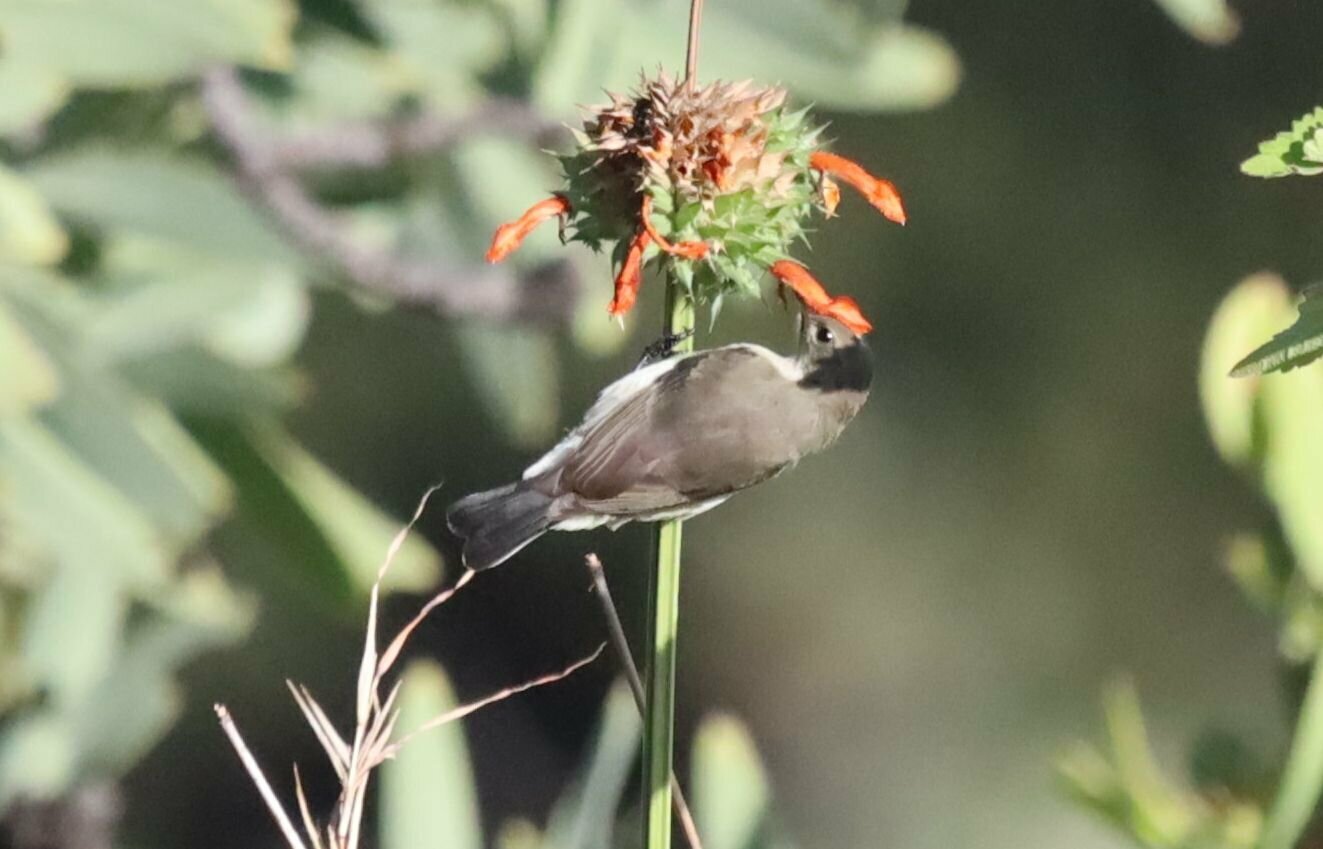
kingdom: Animalia
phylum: Chordata
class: Aves
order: Passeriformes
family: Nectariniidae
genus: Cinnyris
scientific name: Cinnyris talatala
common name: White-bellied sunbird
